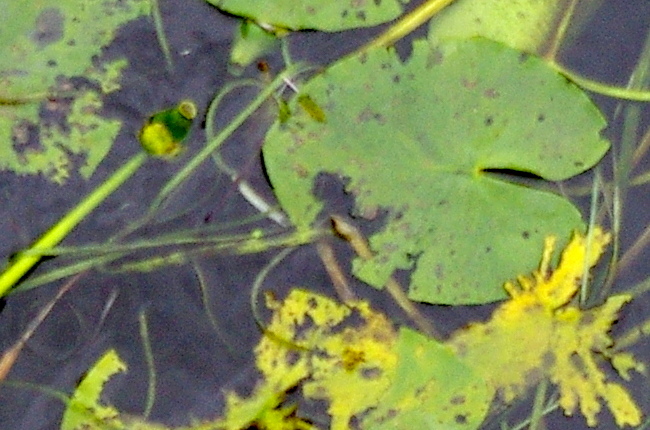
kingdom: Plantae
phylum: Tracheophyta
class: Magnoliopsida
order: Nymphaeales
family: Nymphaeaceae
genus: Nuphar
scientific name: Nuphar lutea
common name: Yellow water-lily
